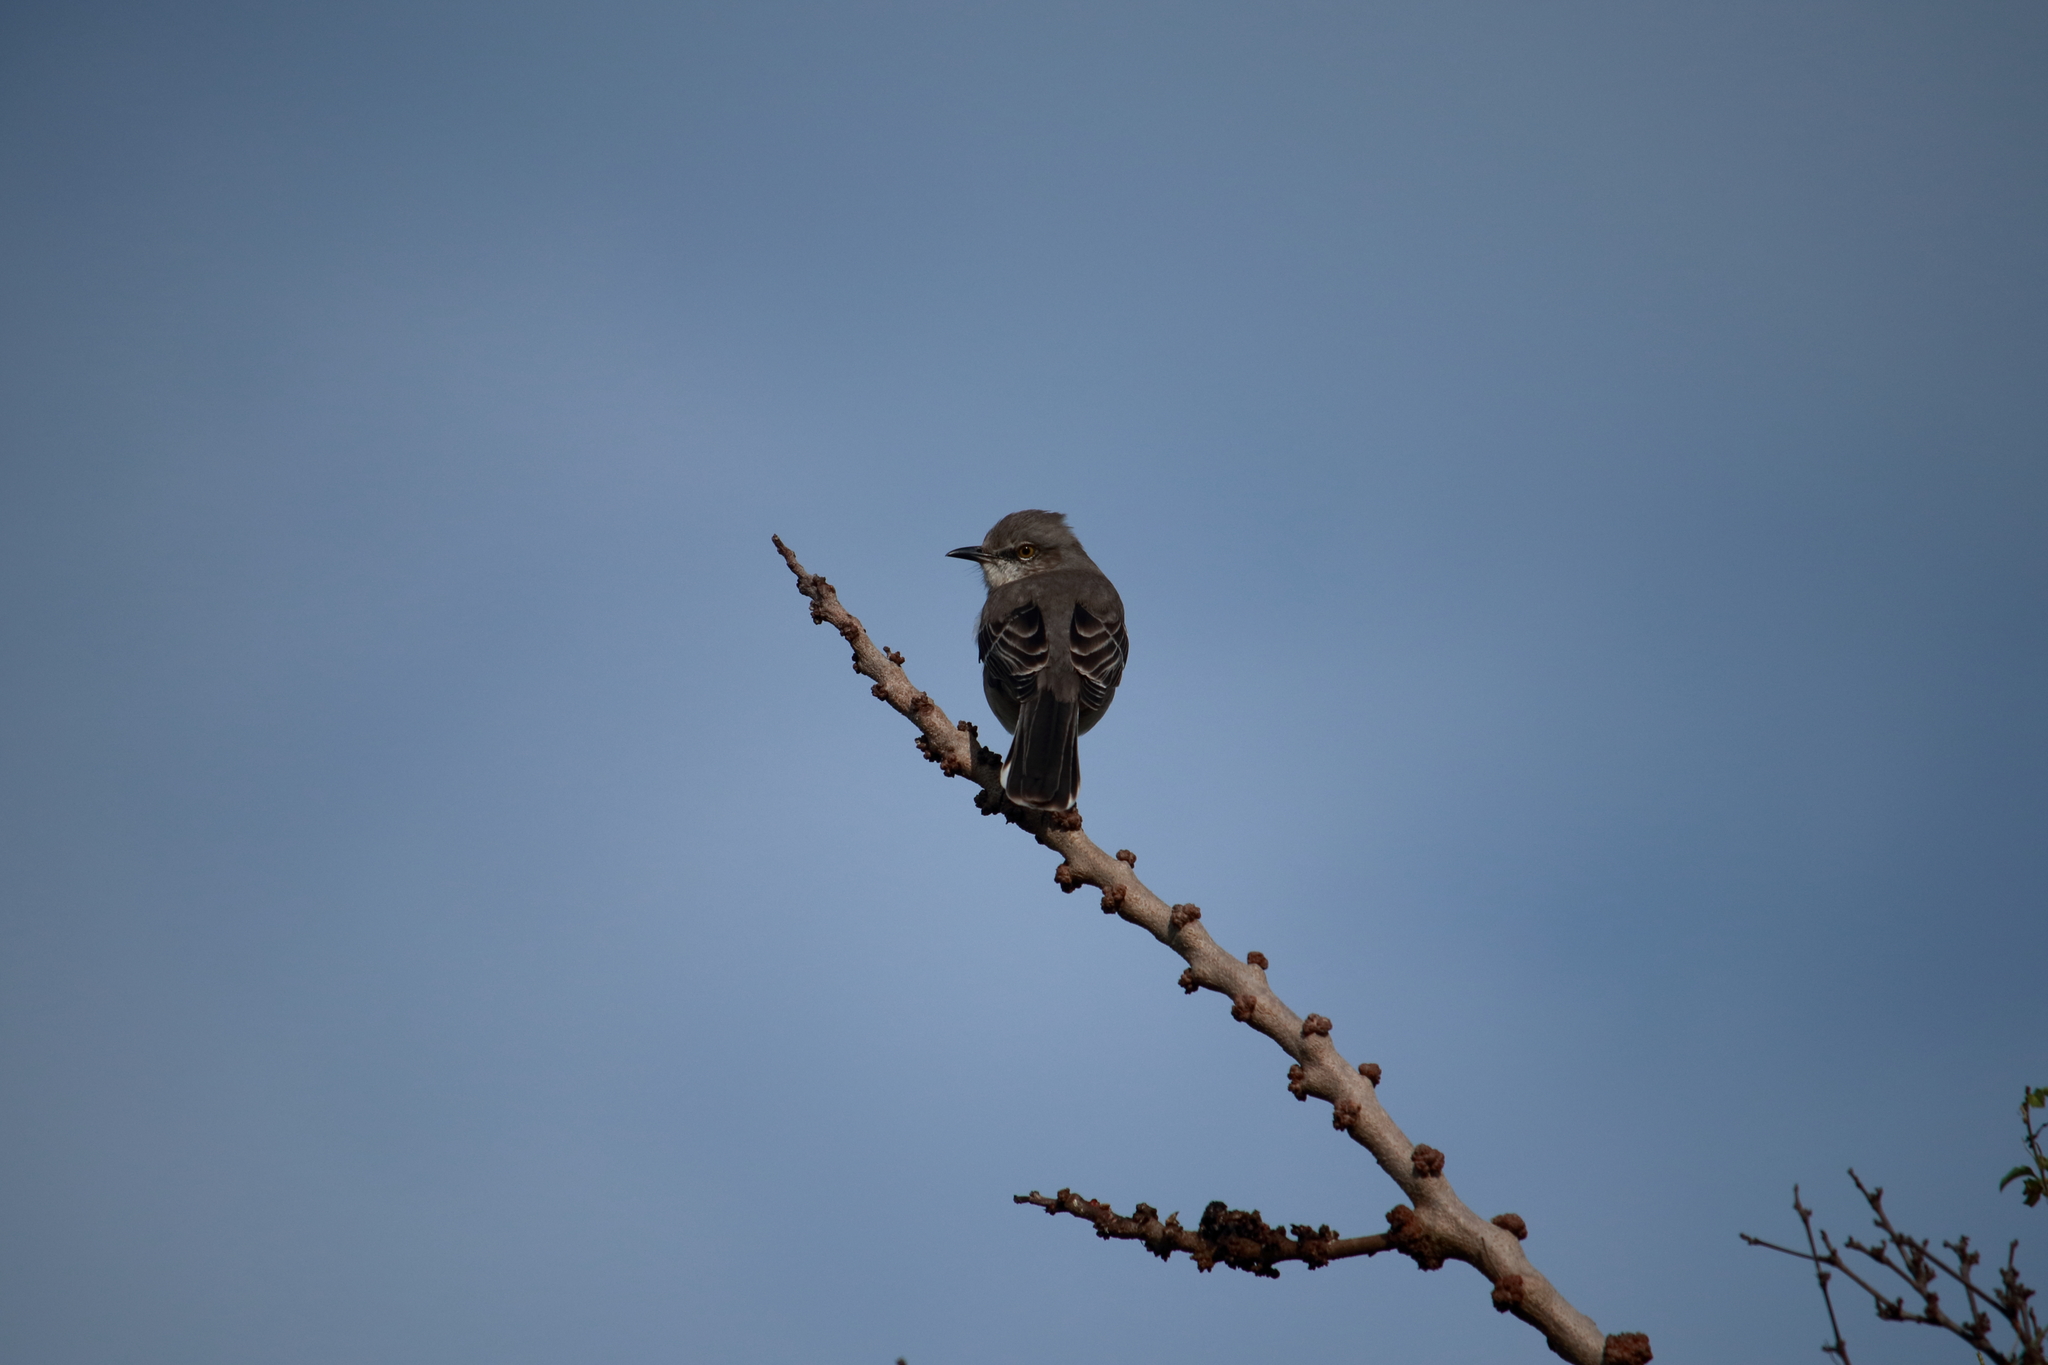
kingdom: Animalia
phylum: Chordata
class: Aves
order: Passeriformes
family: Mimidae
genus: Mimus
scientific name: Mimus polyglottos
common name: Northern mockingbird
